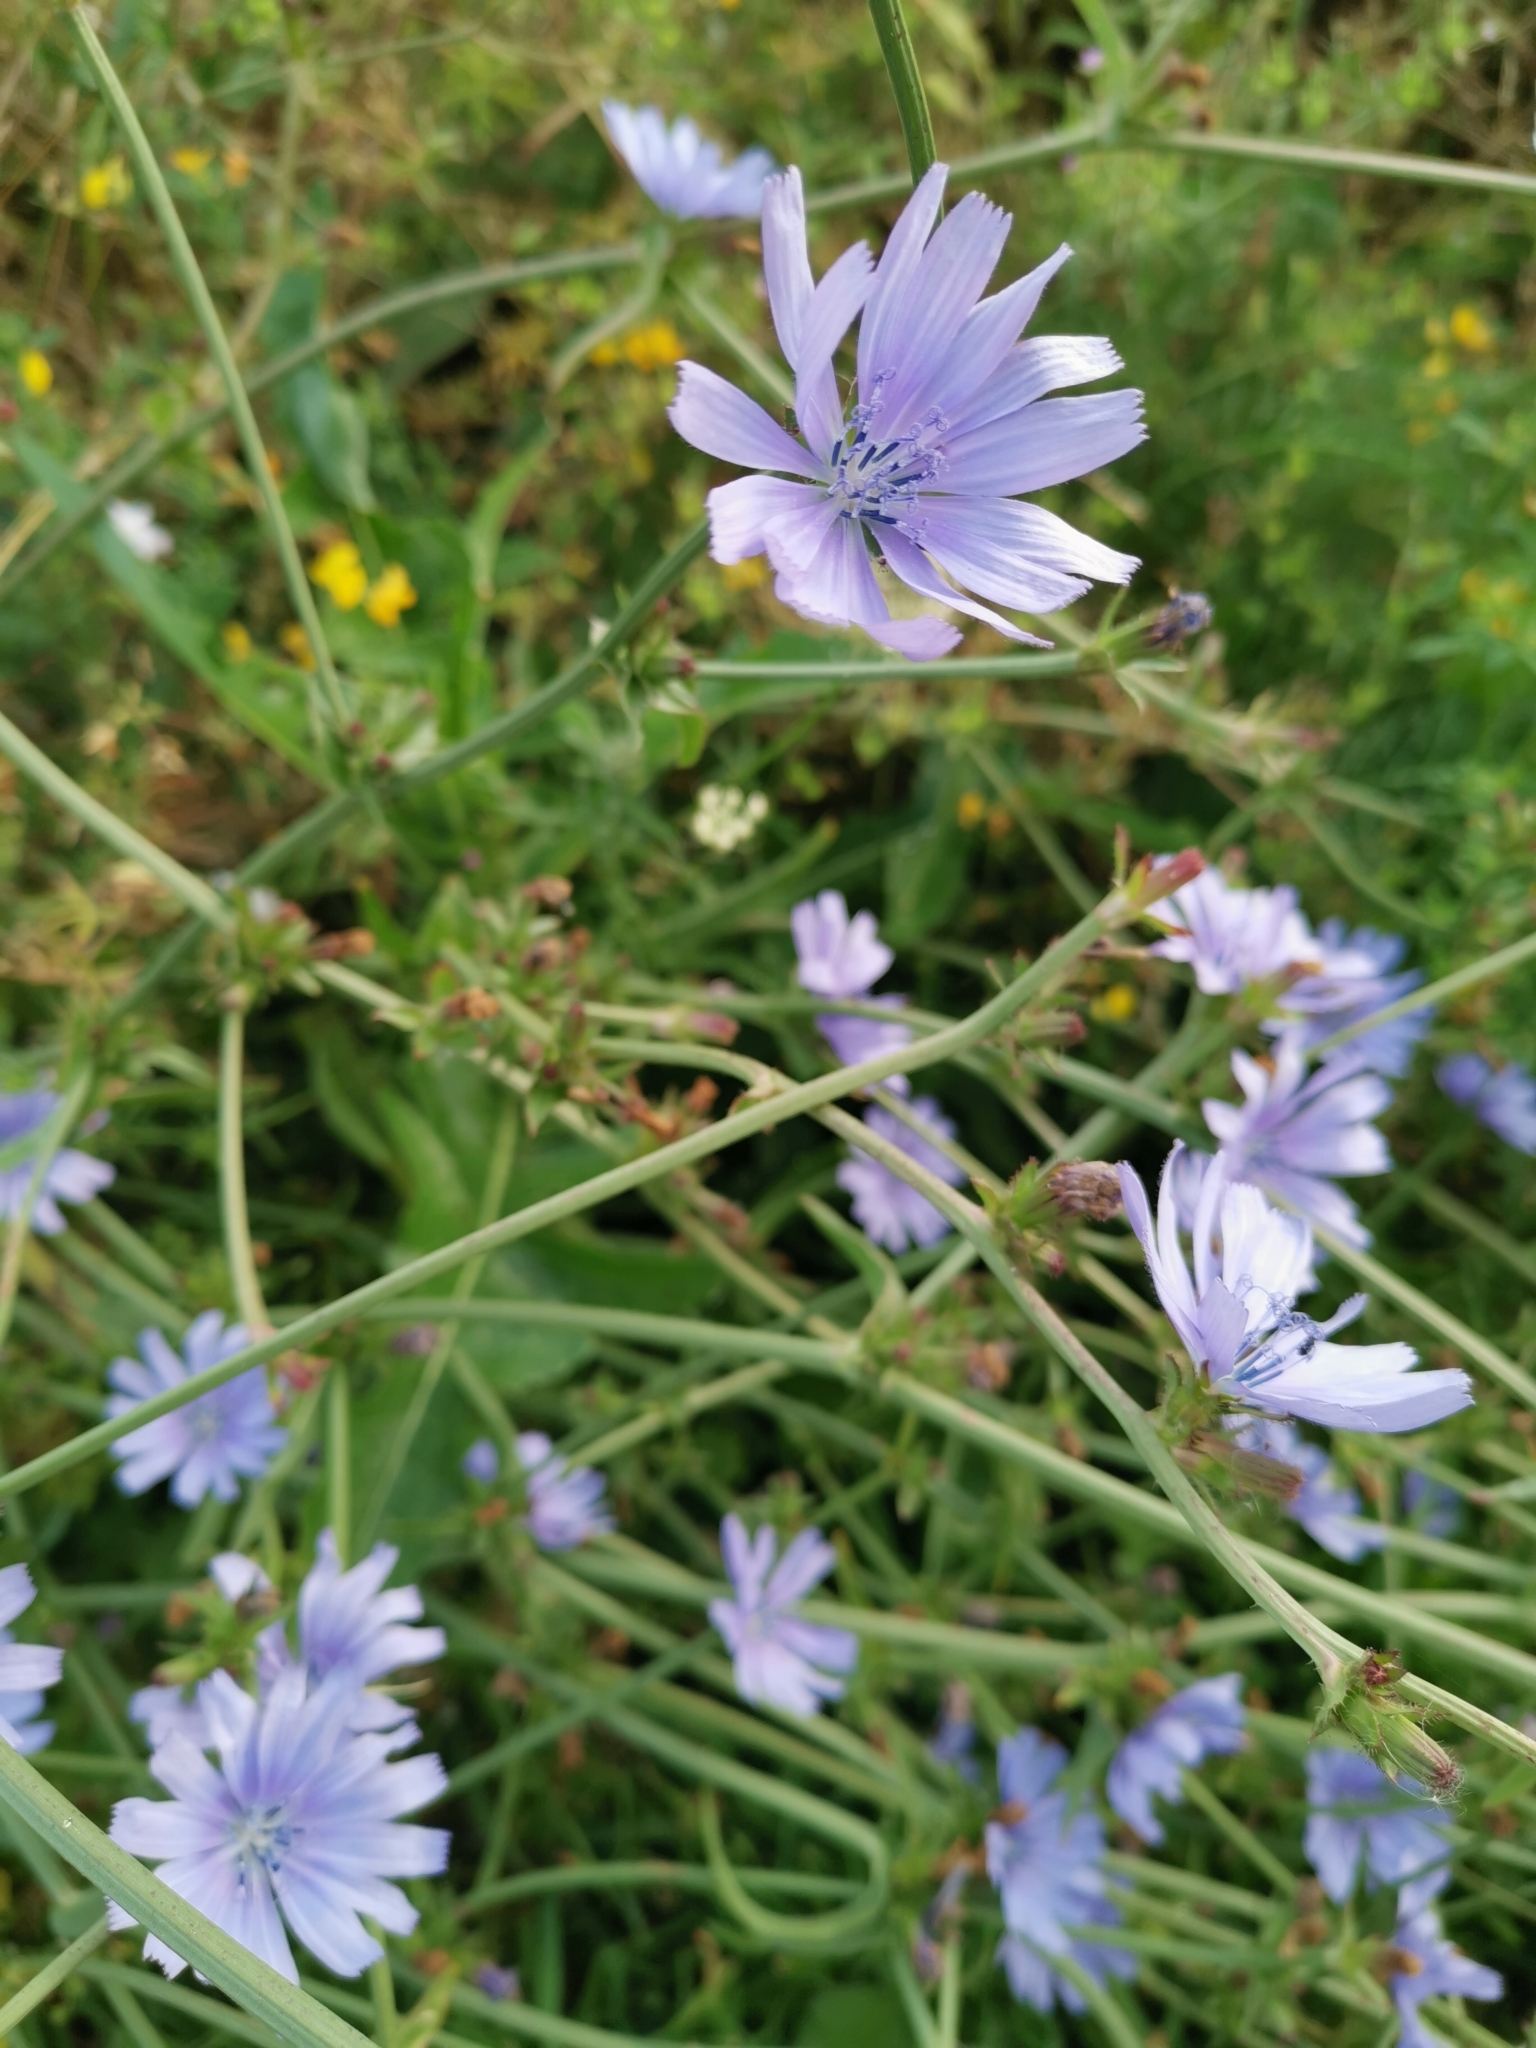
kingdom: Plantae
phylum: Tracheophyta
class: Magnoliopsida
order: Asterales
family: Asteraceae
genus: Cichorium
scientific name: Cichorium intybus
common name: Chicory
